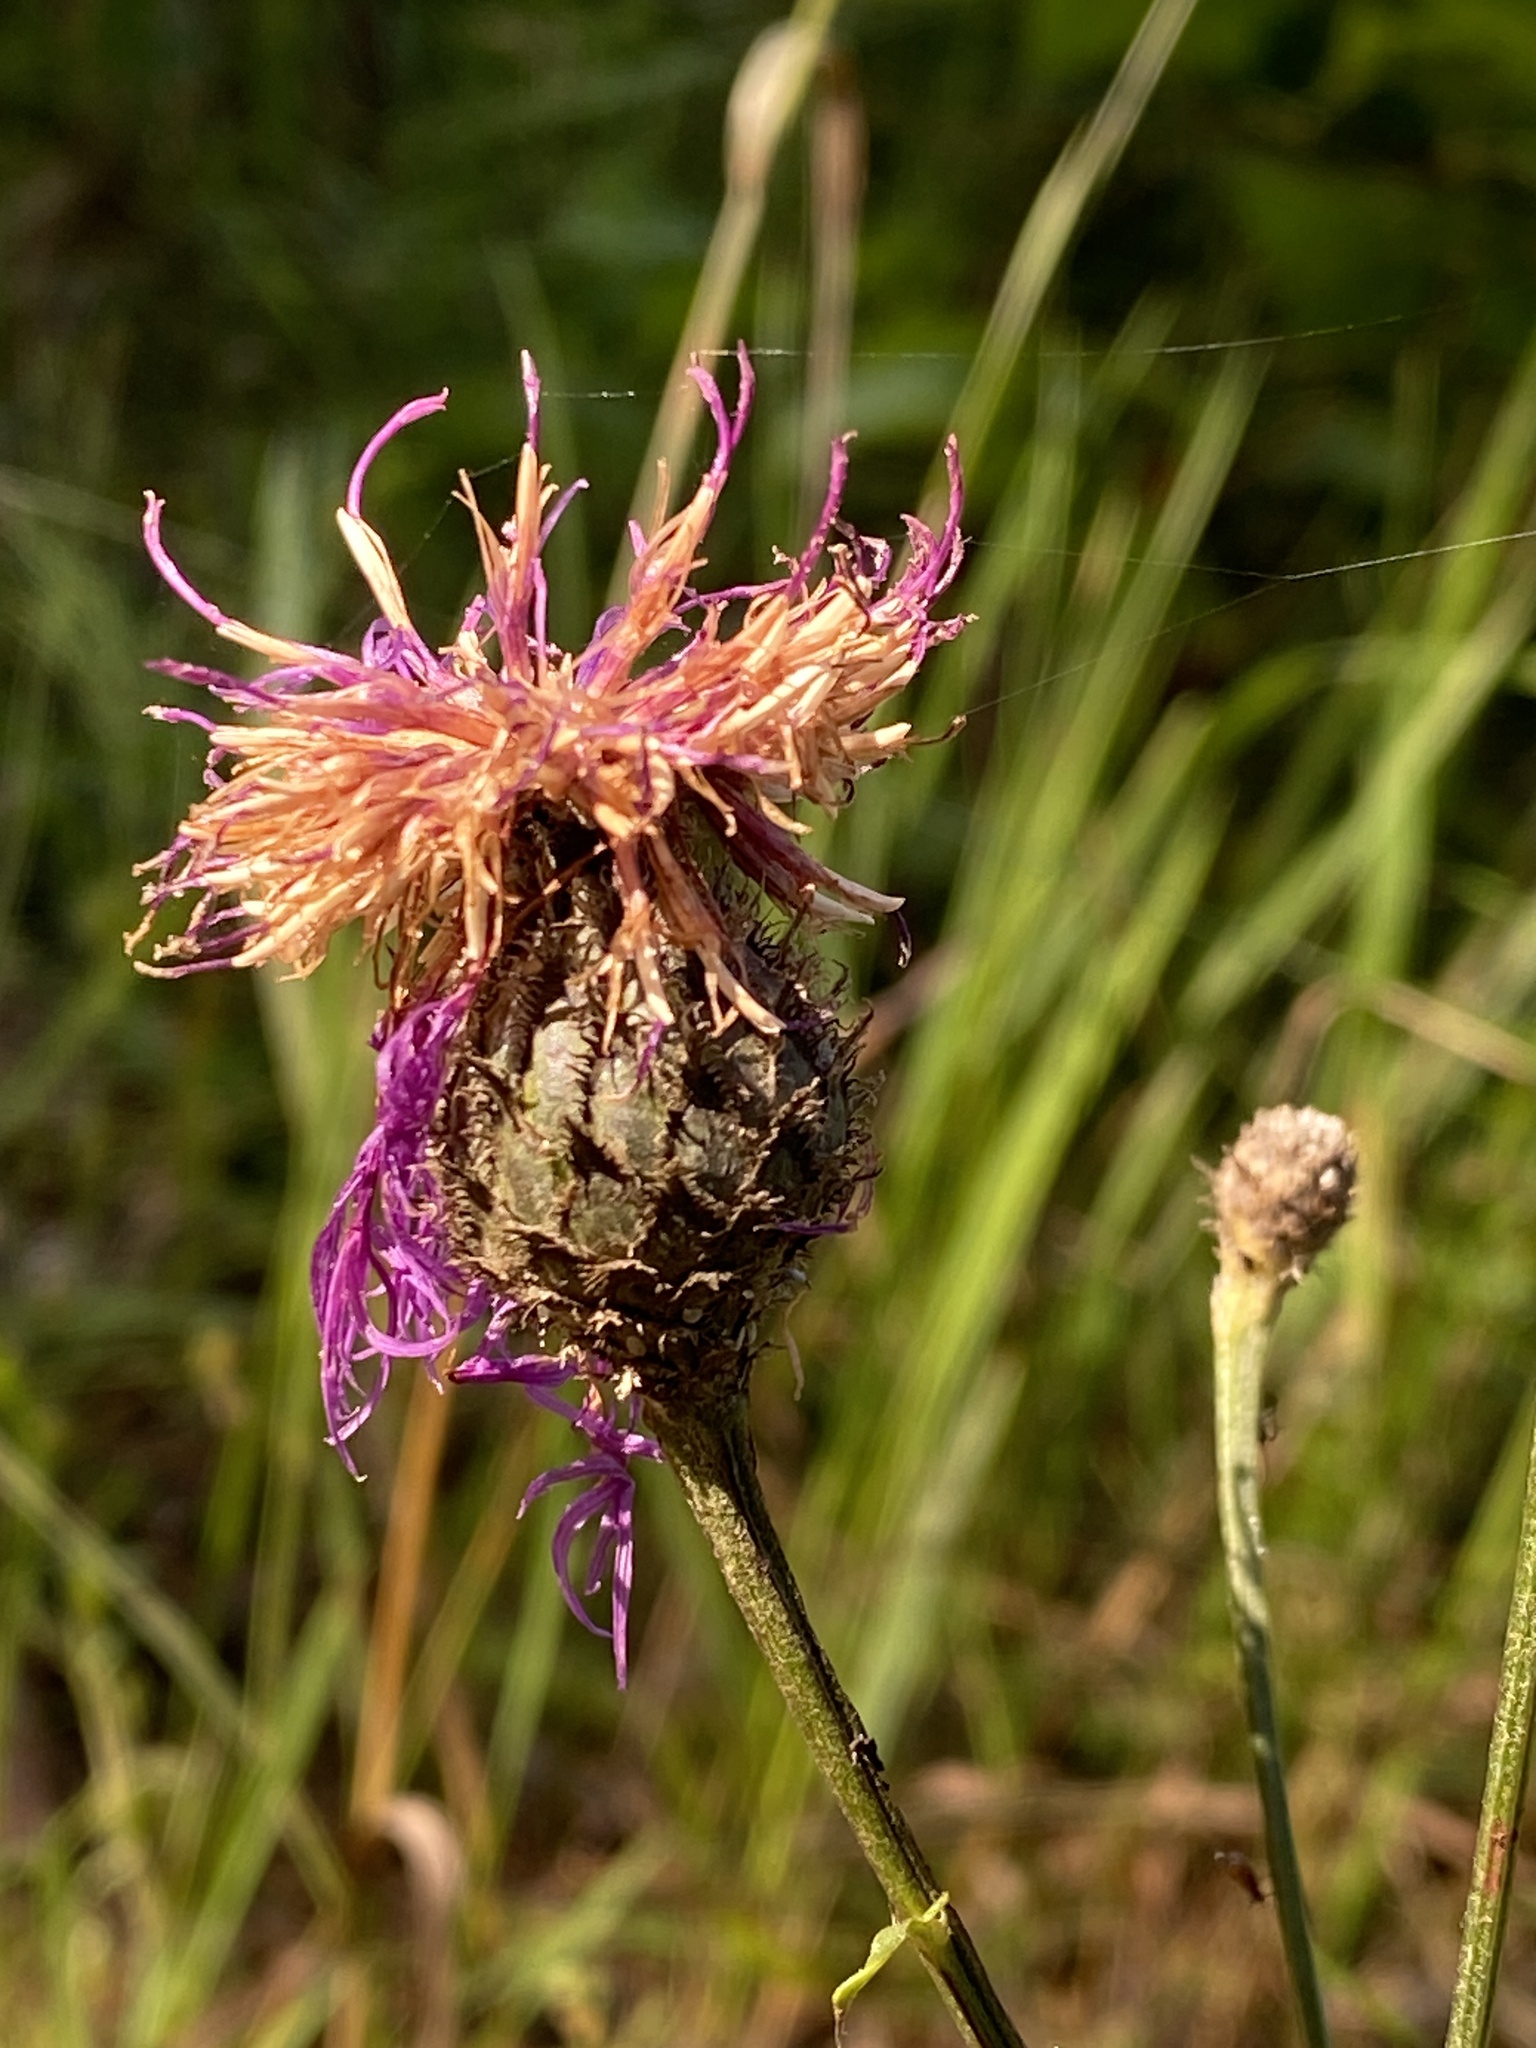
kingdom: Plantae
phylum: Tracheophyta
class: Magnoliopsida
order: Asterales
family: Asteraceae
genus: Centaurea
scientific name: Centaurea scabiosa
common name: Greater knapweed
